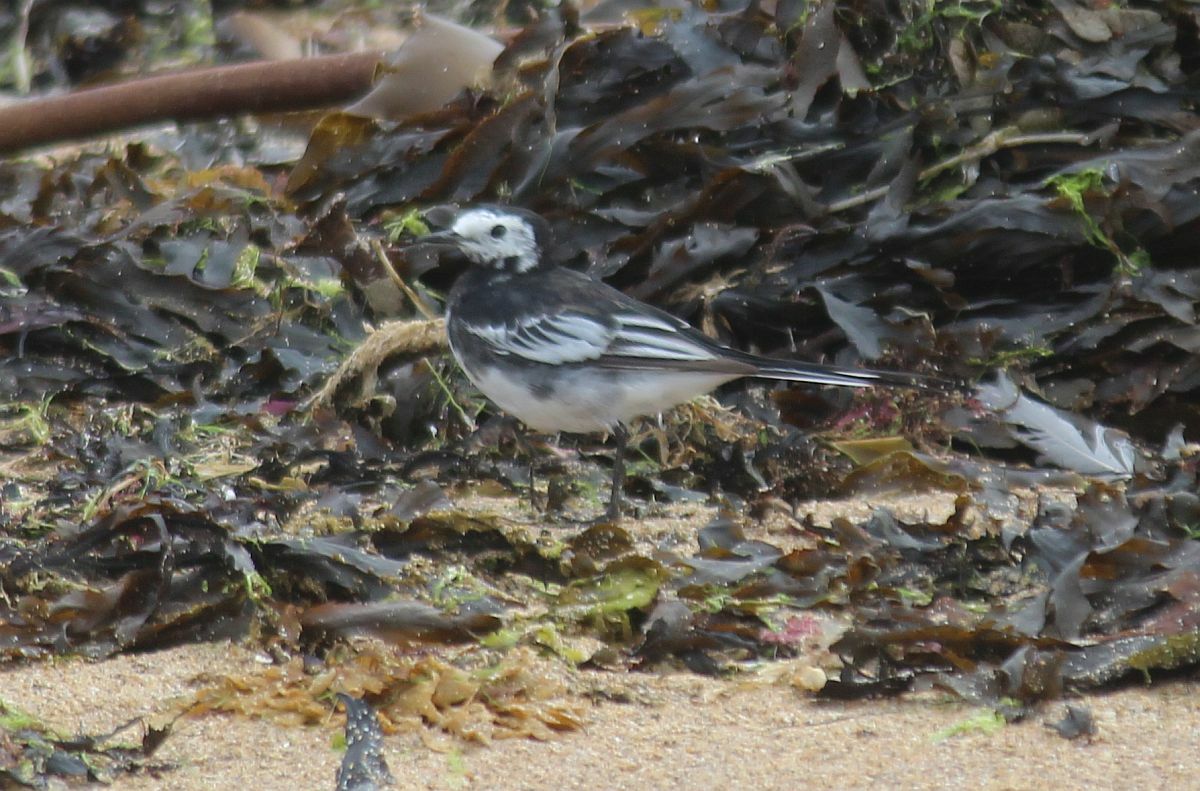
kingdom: Animalia
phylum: Chordata
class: Aves
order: Passeriformes
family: Motacillidae
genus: Motacilla
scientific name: Motacilla alba
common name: White wagtail
